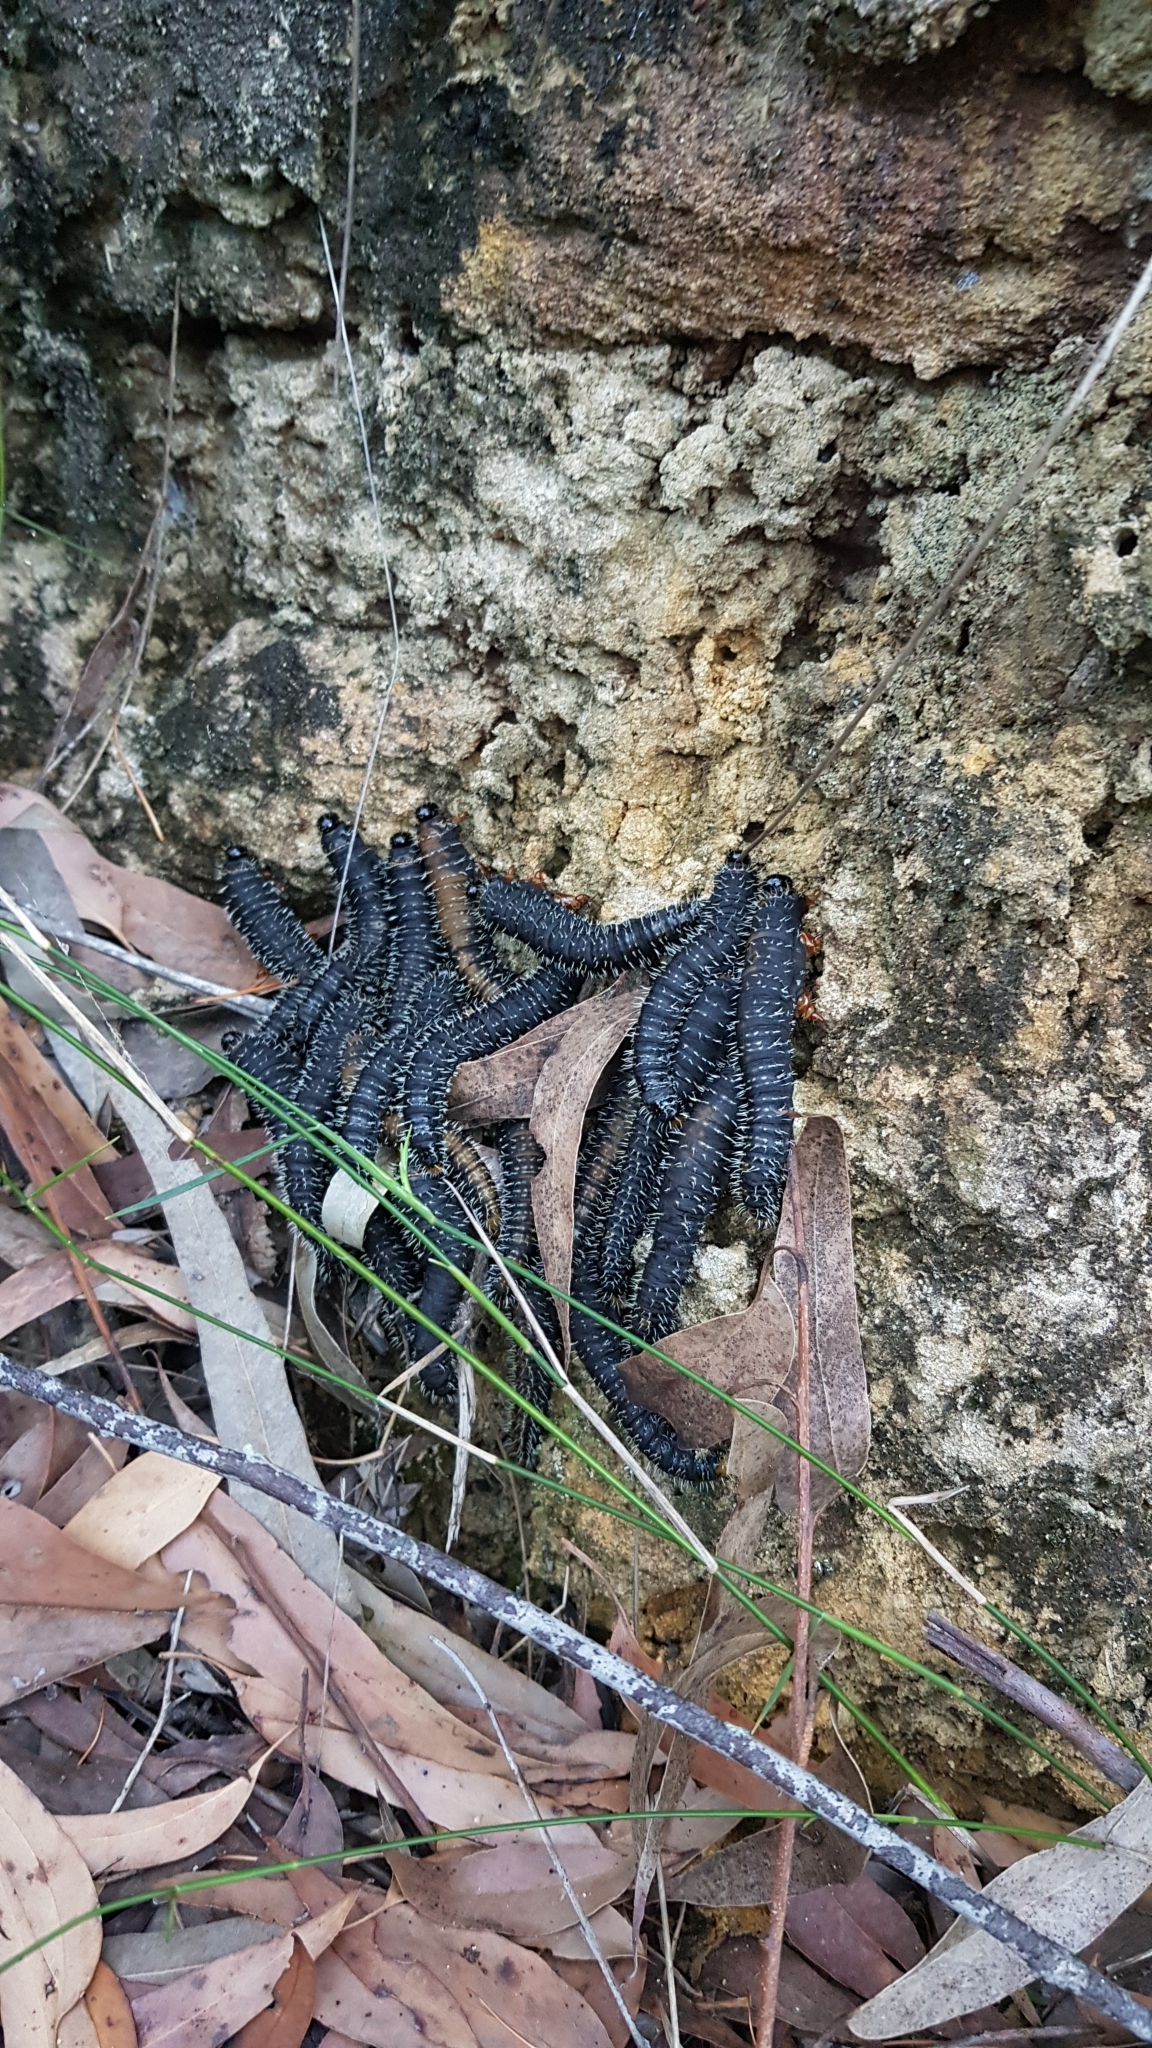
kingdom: Animalia
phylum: Arthropoda
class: Insecta
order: Hymenoptera
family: Pergidae
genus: Perga
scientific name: Perga affinis
